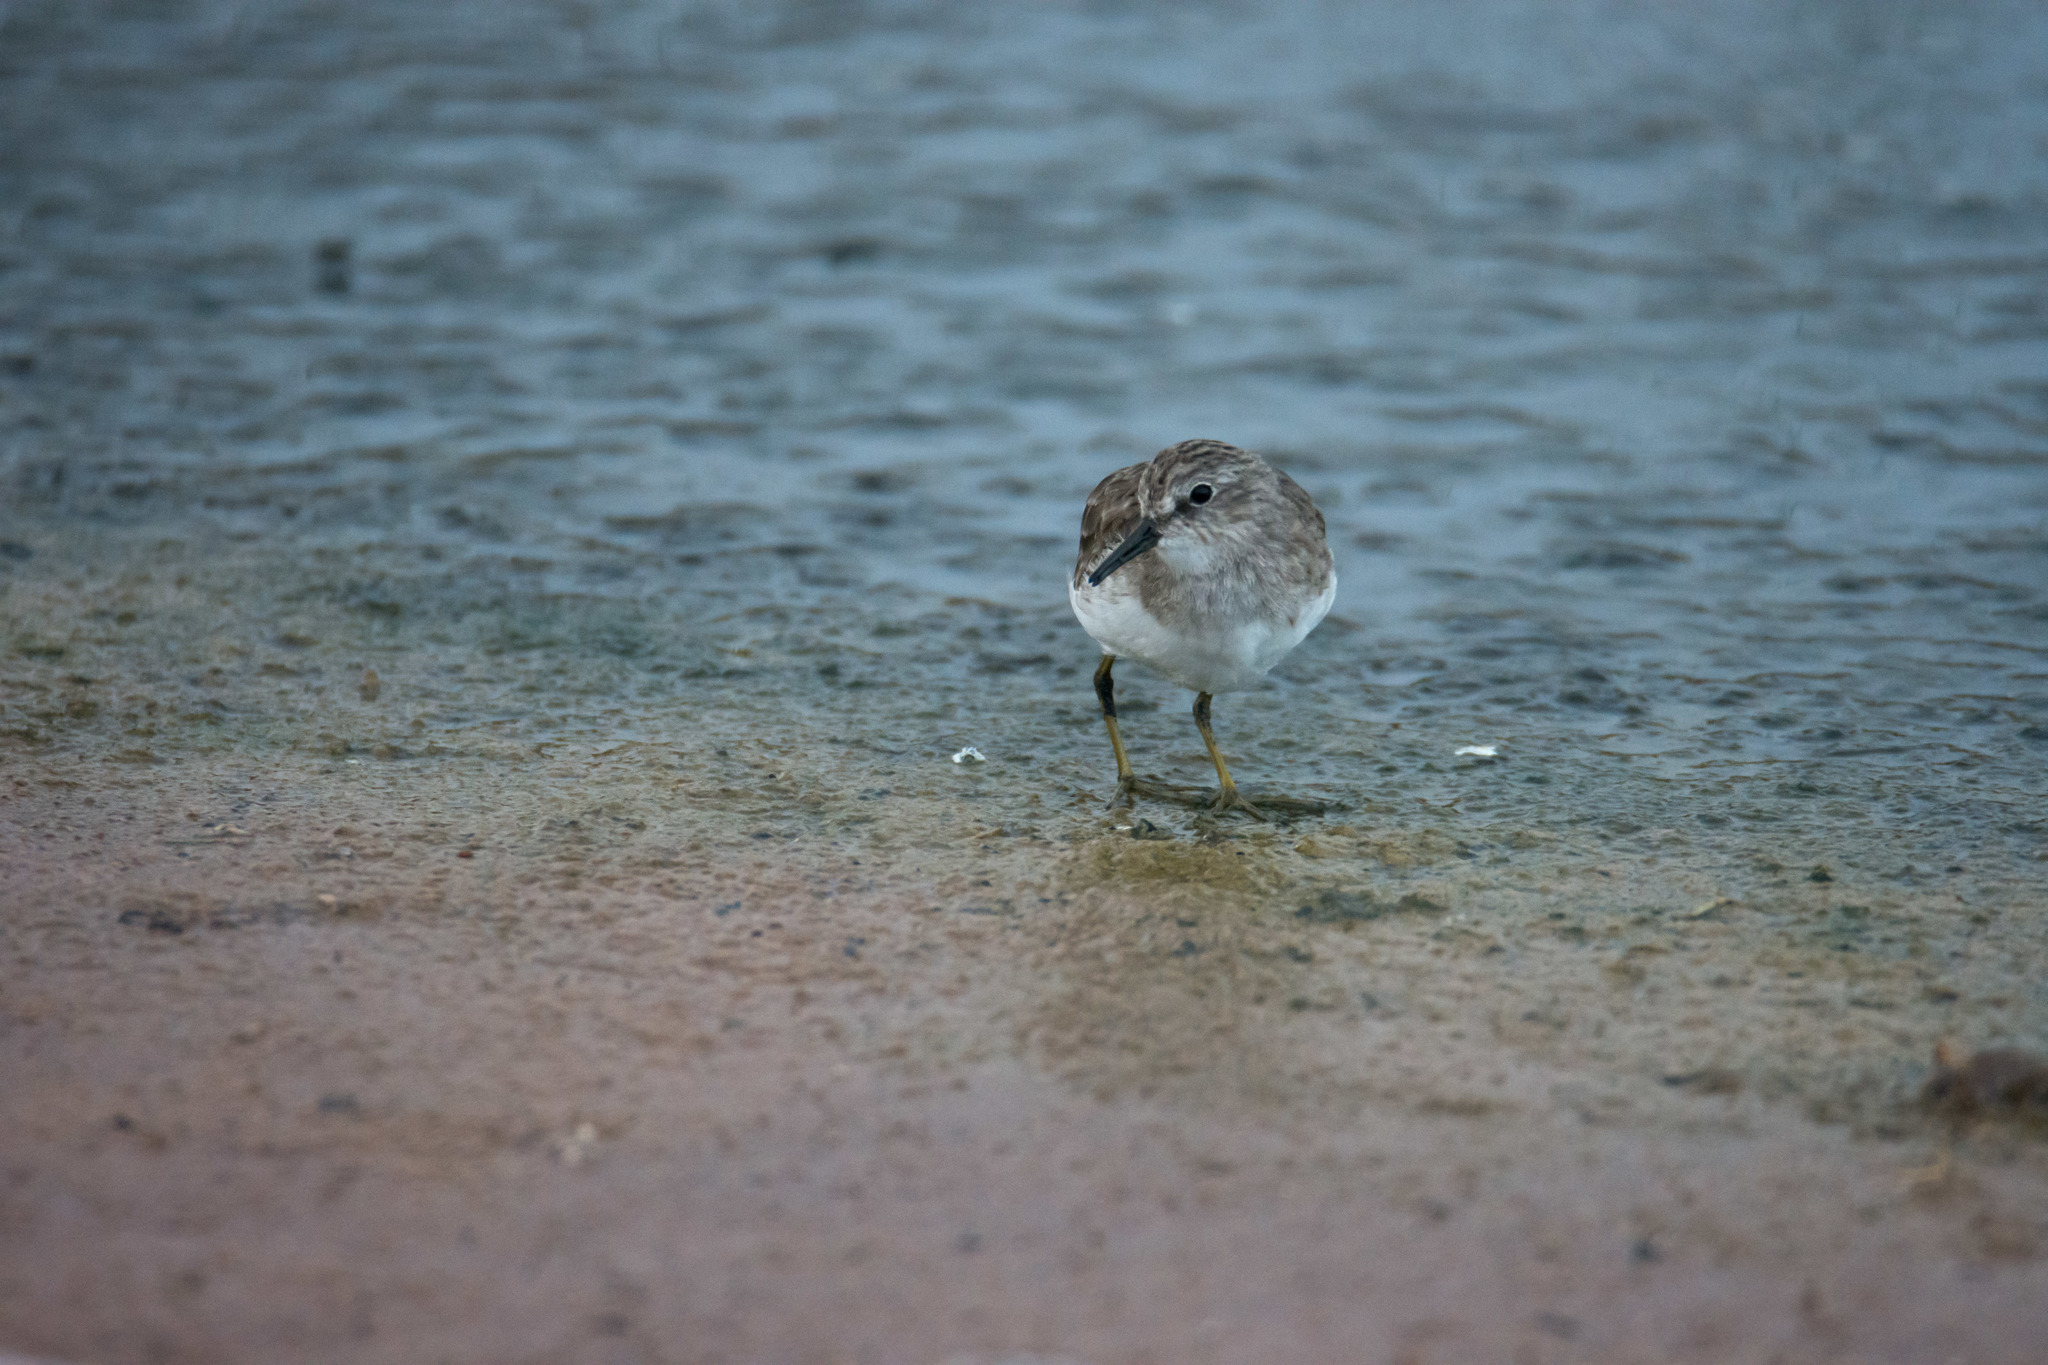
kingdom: Animalia
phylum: Chordata
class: Aves
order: Charadriiformes
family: Scolopacidae
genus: Calidris
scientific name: Calidris minutilla
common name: Least sandpiper
